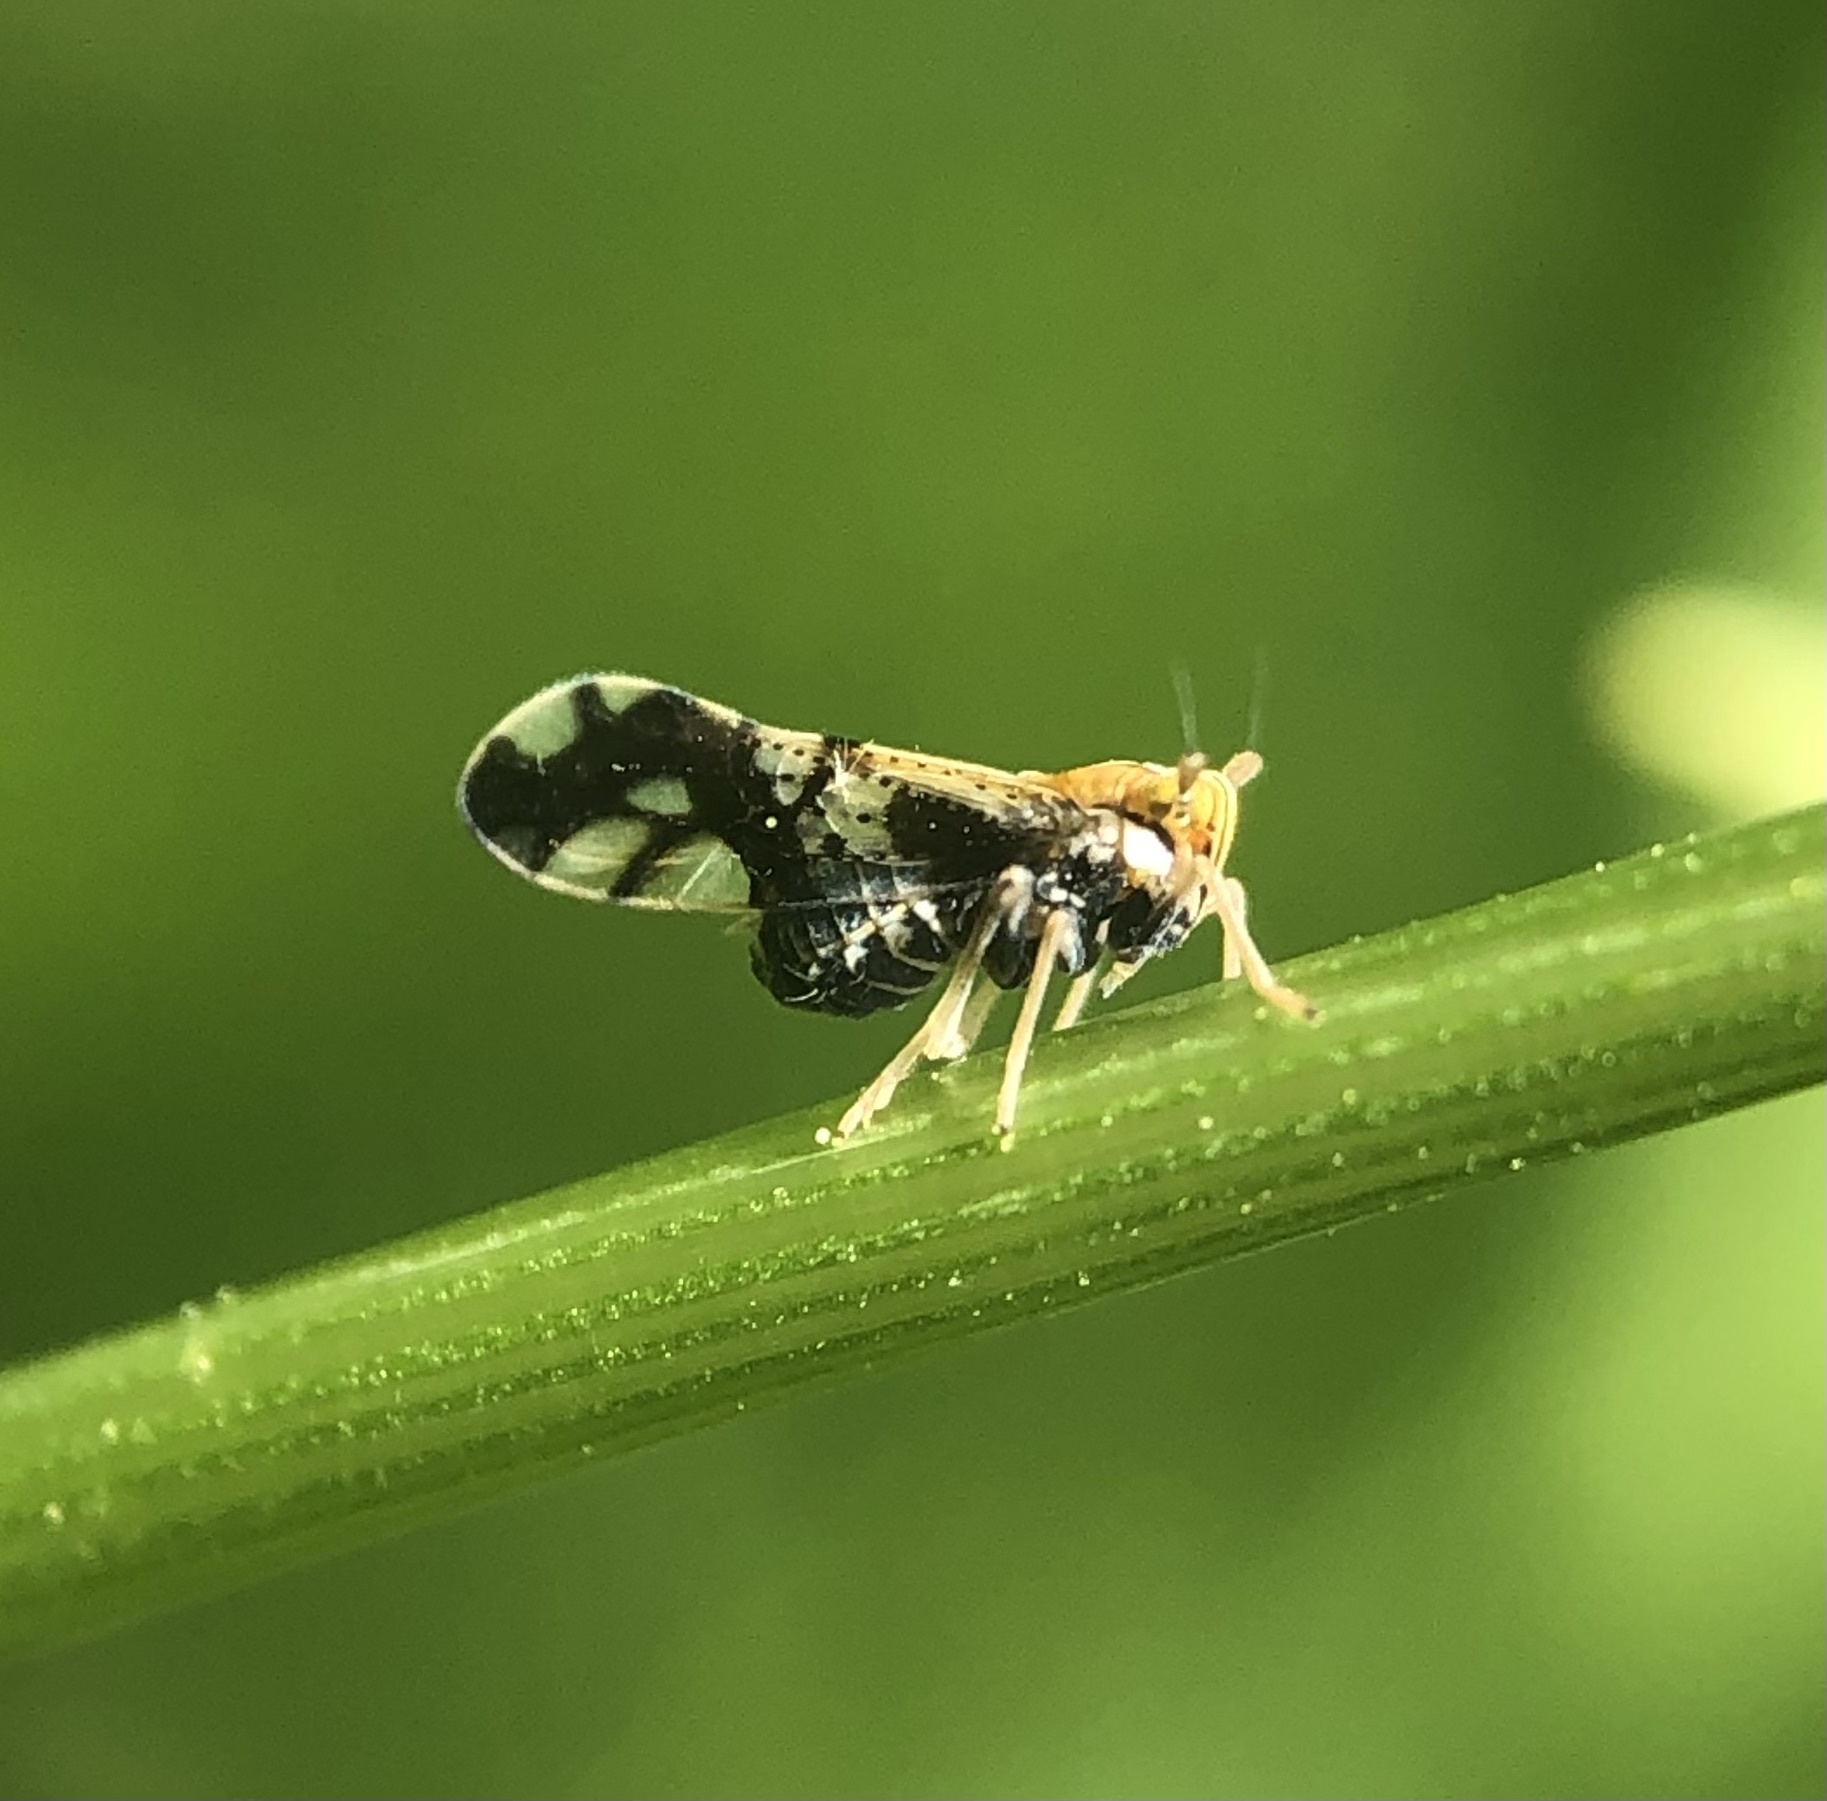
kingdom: Animalia
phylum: Arthropoda
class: Insecta
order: Hemiptera
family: Delphacidae
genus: Liburniella
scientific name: Liburniella ornata
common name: Ornate planthopper
